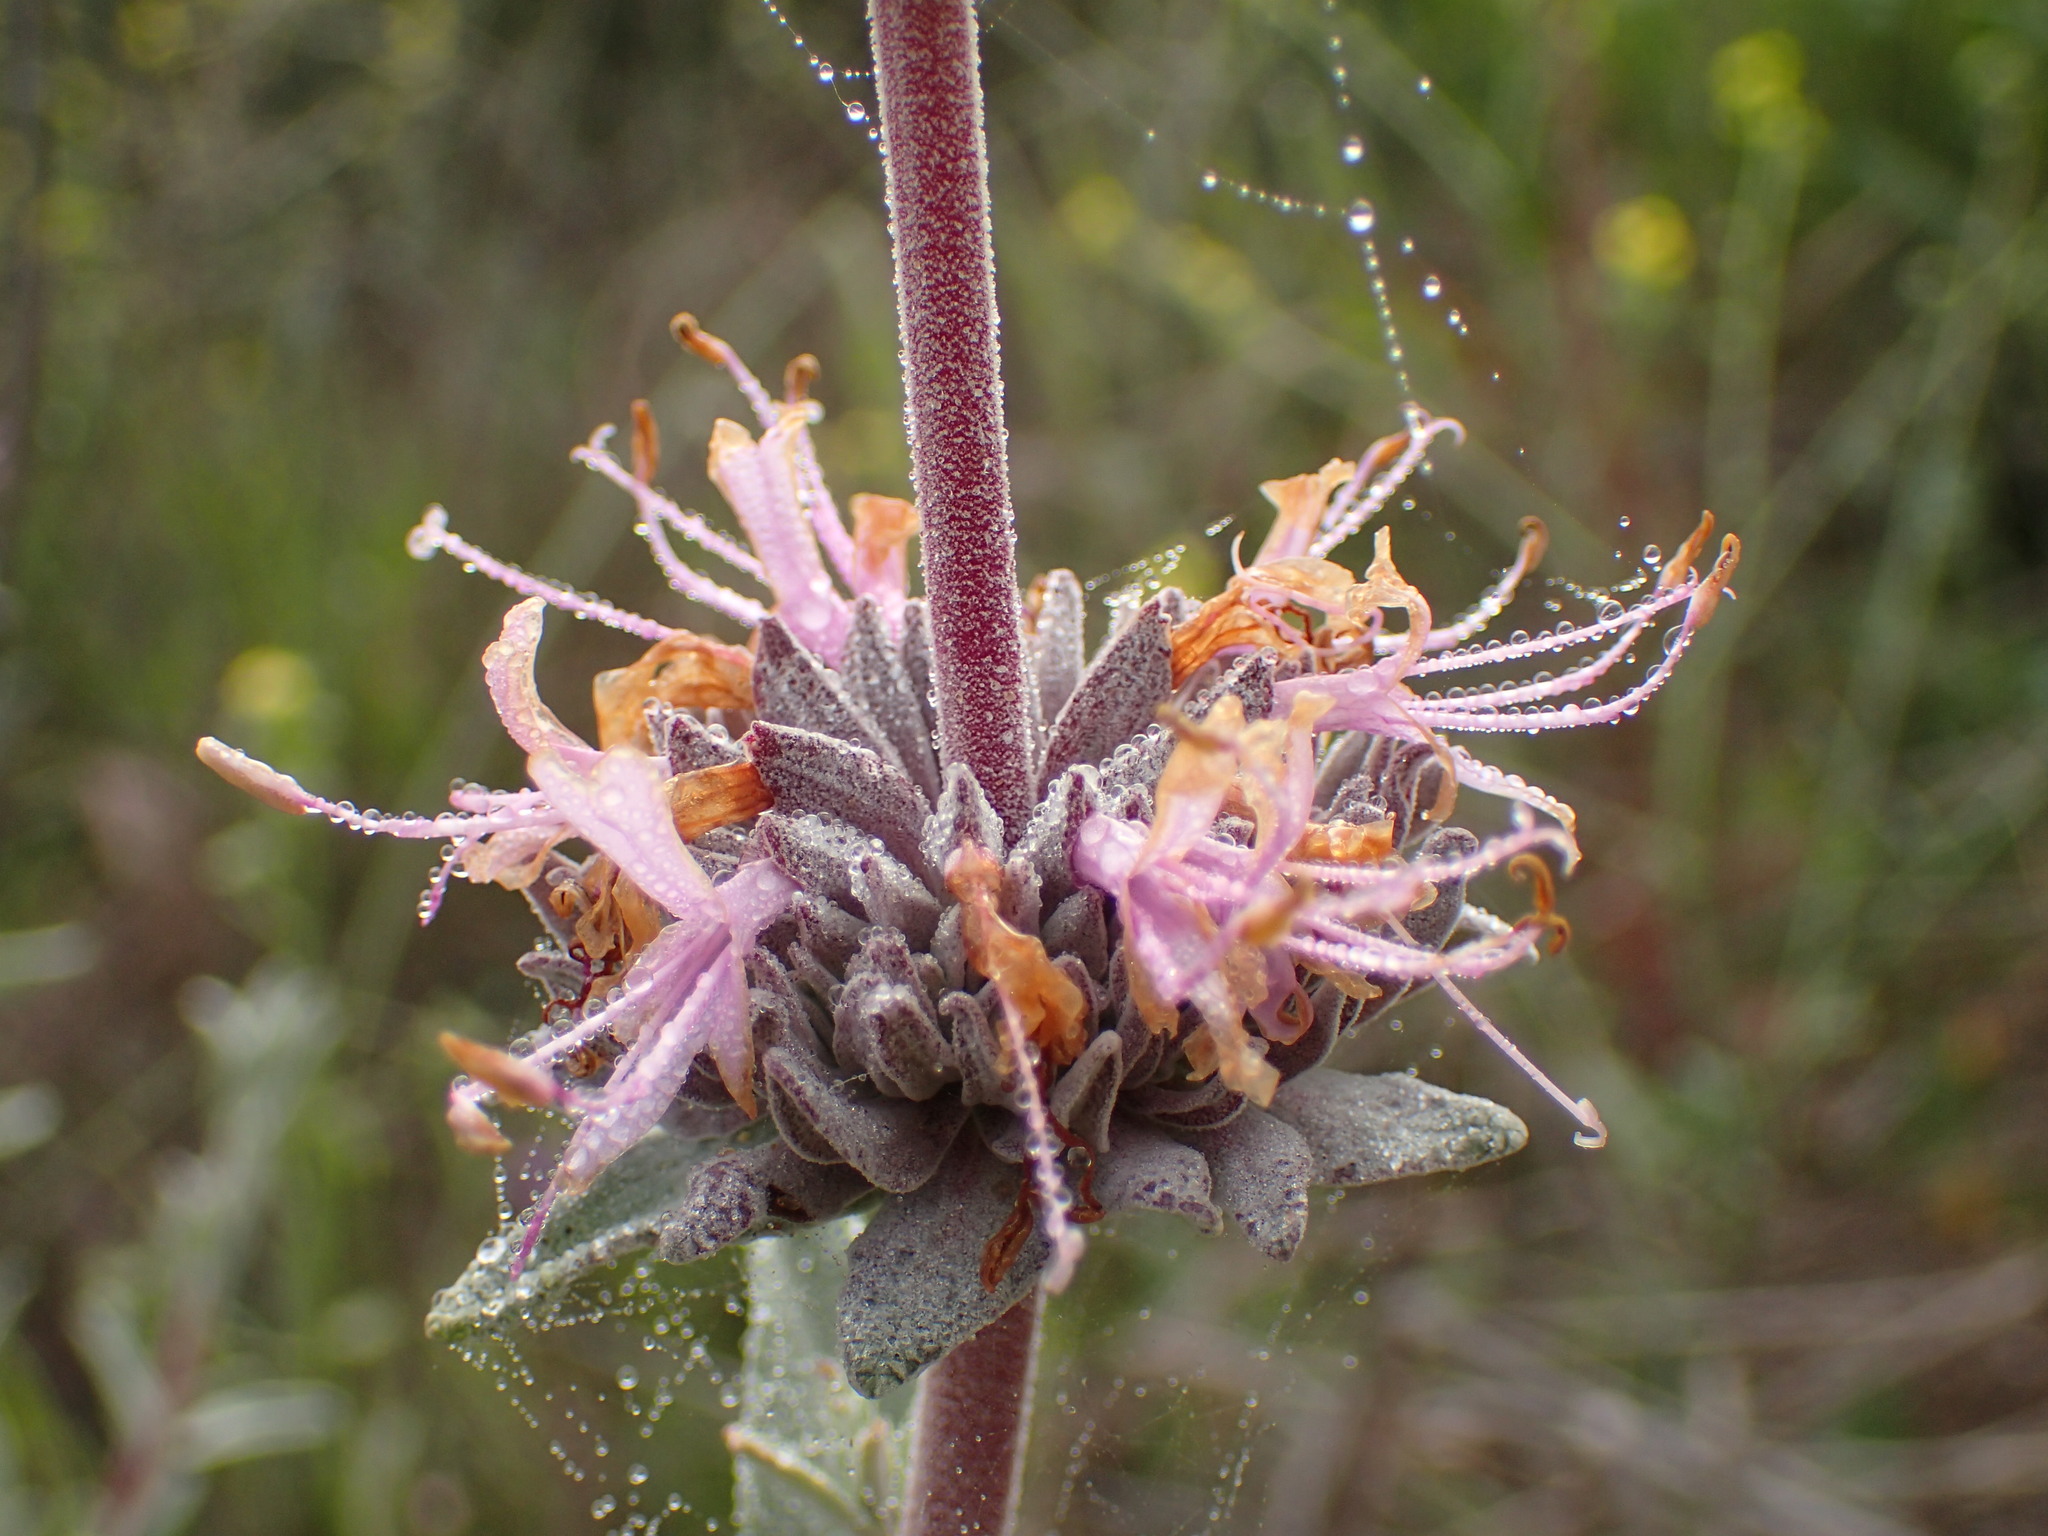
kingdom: Plantae
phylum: Tracheophyta
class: Magnoliopsida
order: Lamiales
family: Lamiaceae
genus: Salvia
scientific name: Salvia leucophylla
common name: Purple sage
